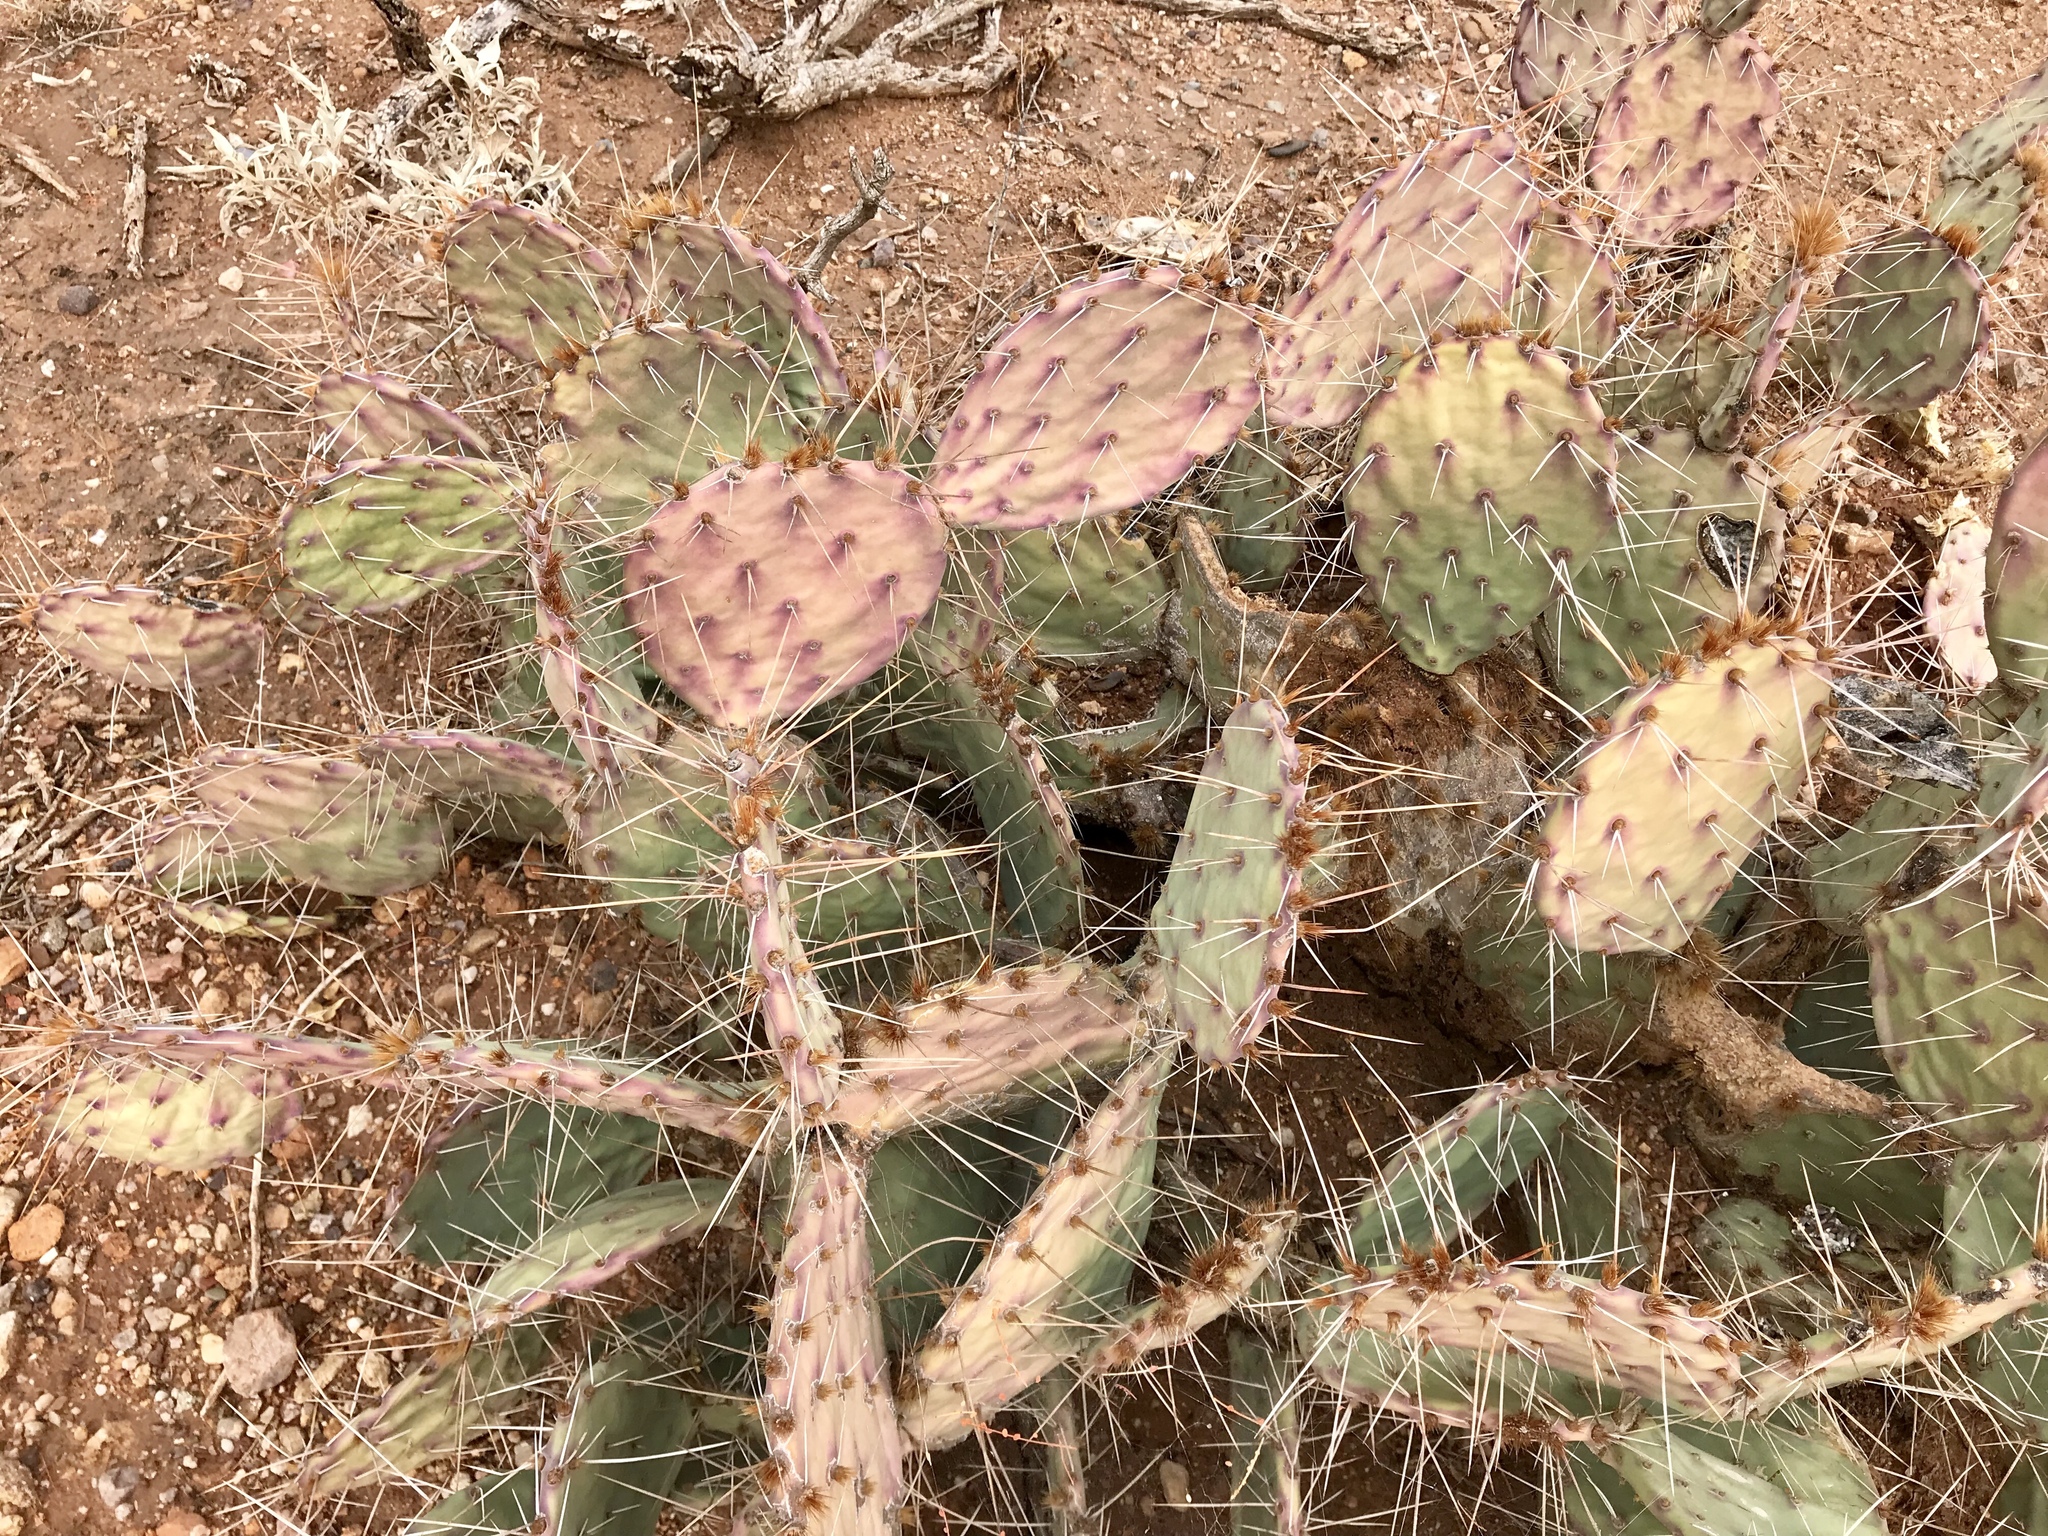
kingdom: Plantae
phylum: Tracheophyta
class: Magnoliopsida
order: Caryophyllales
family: Cactaceae
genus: Opuntia
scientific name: Opuntia phaeacantha
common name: New mexico prickly-pear
